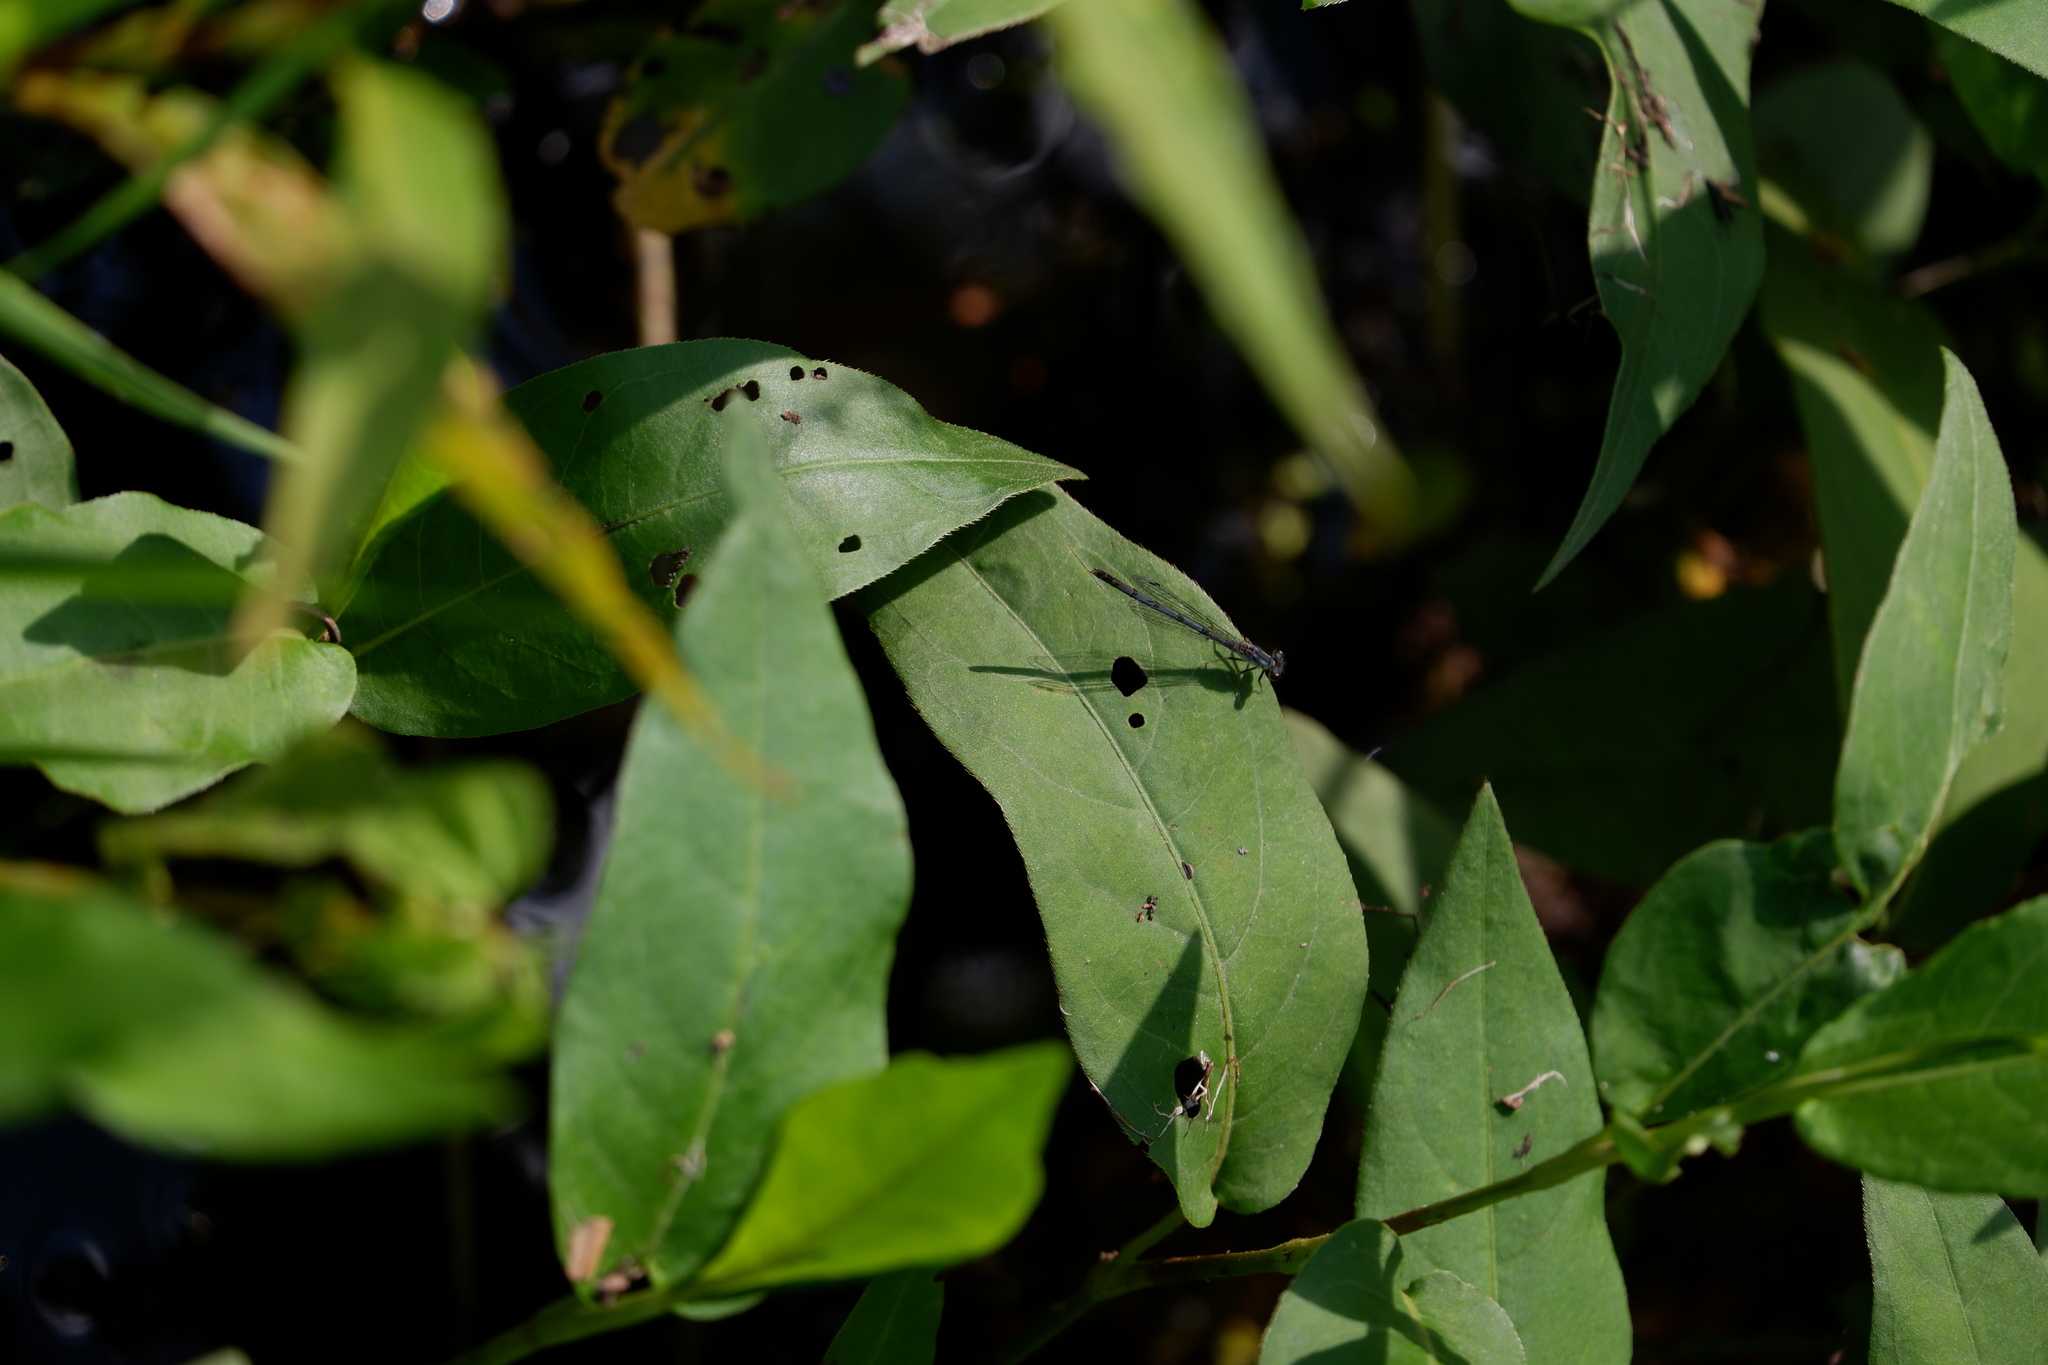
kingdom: Animalia
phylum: Arthropoda
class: Insecta
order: Odonata
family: Coenagrionidae
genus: Ischnura
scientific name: Ischnura posita
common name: Fragile forktail
